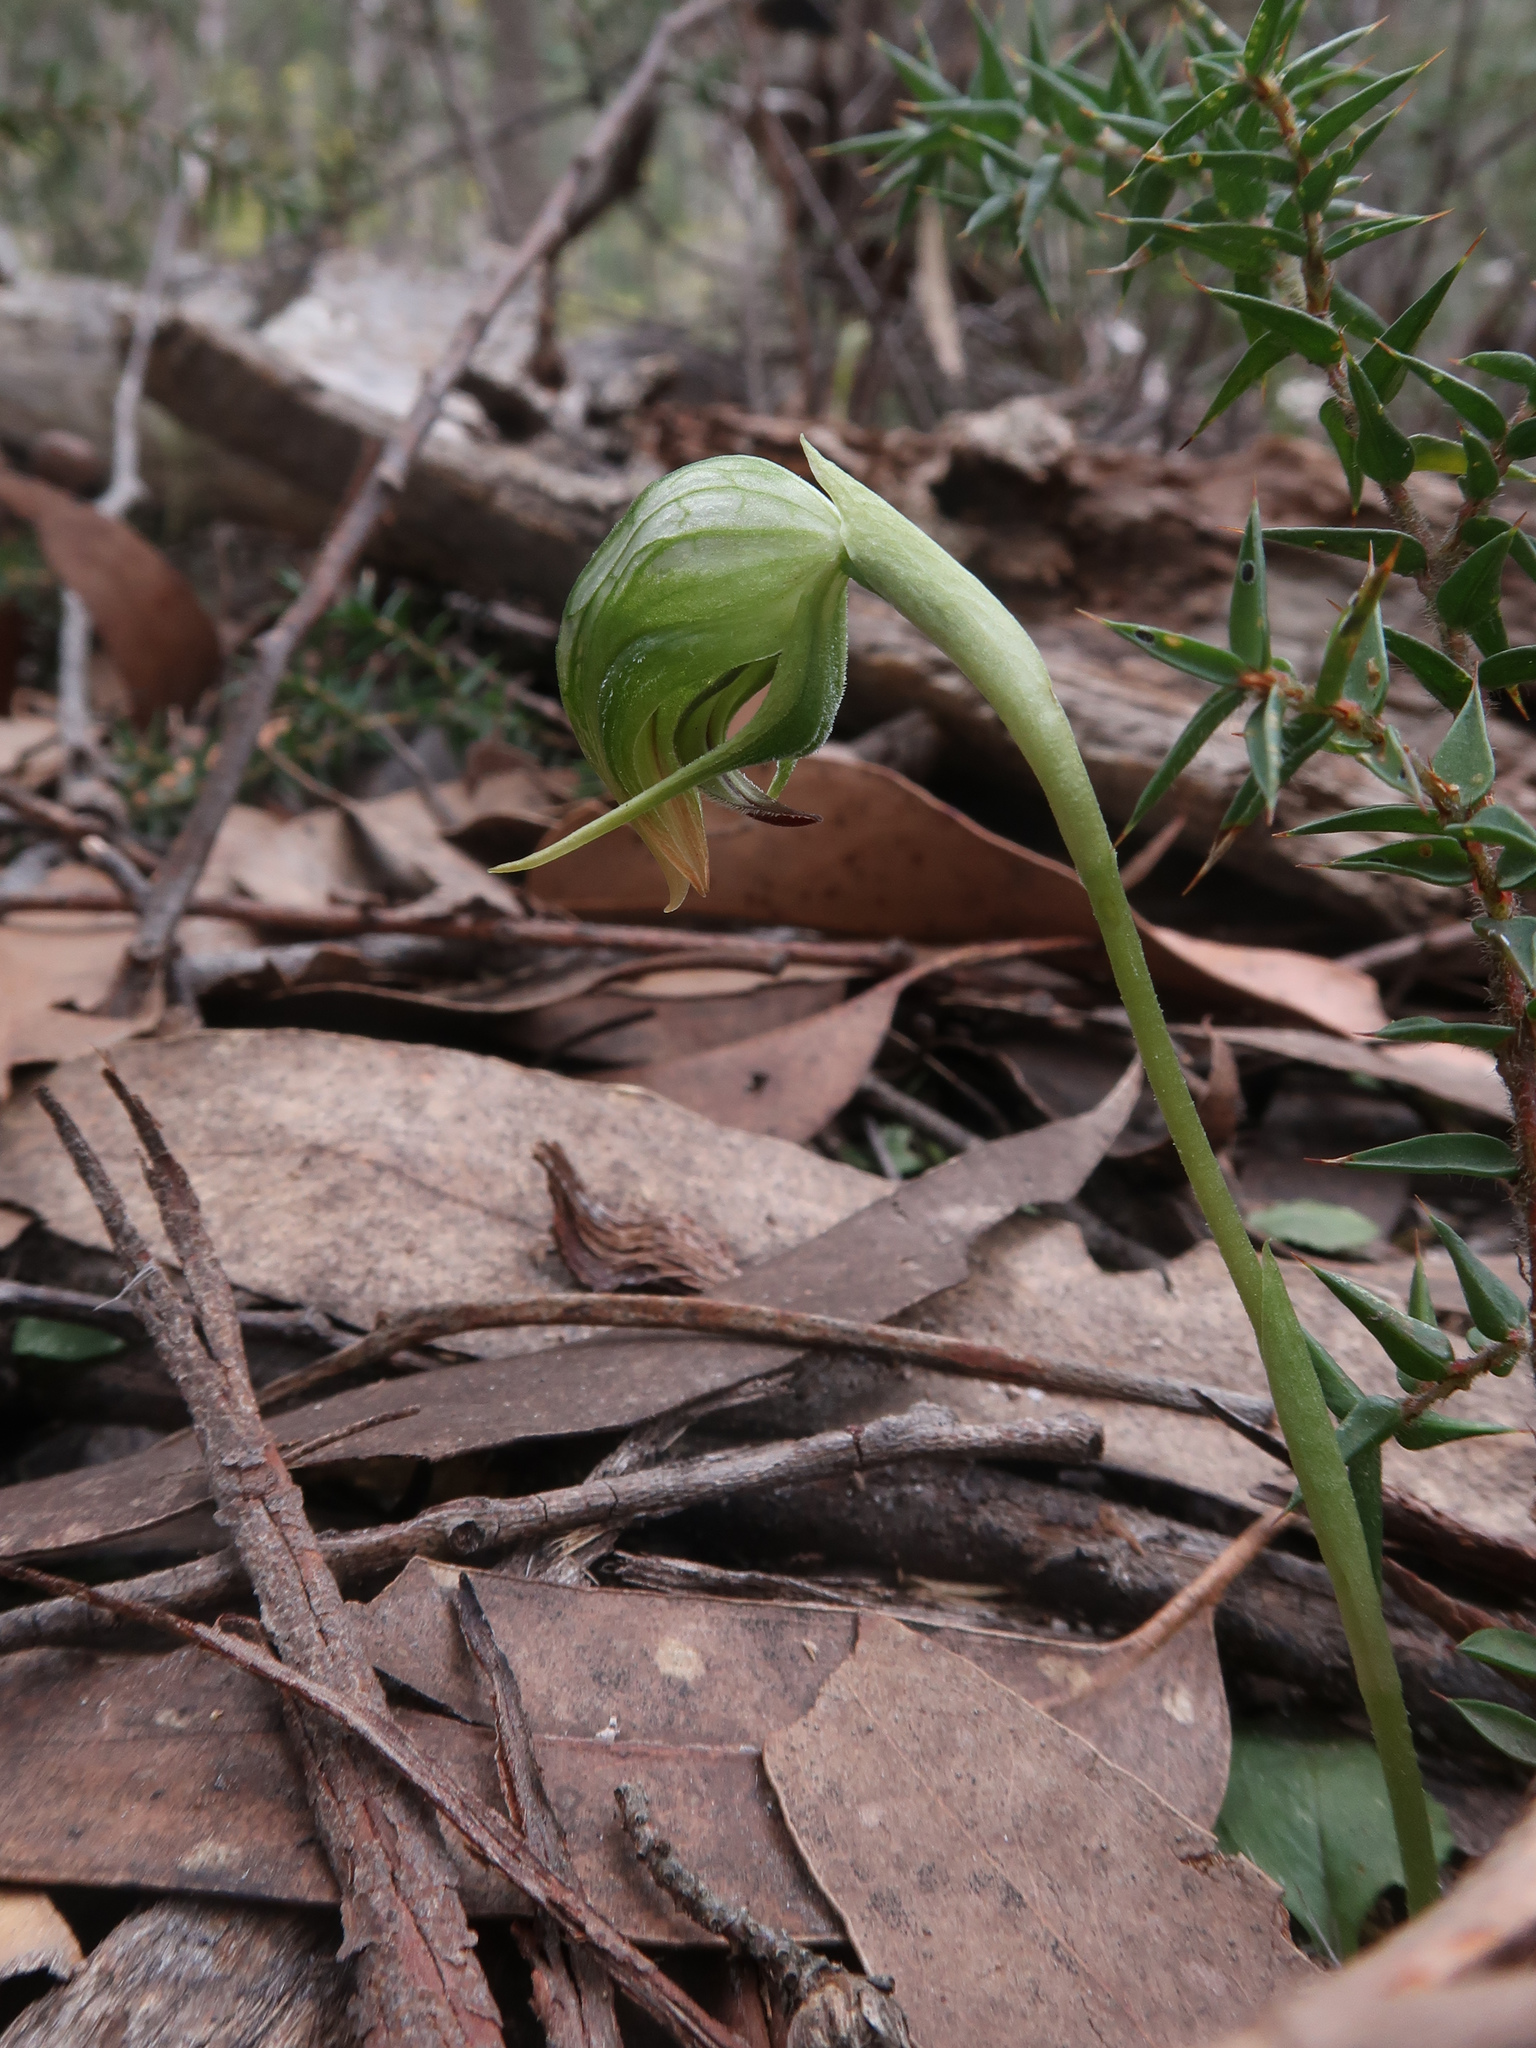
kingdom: Plantae
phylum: Tracheophyta
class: Liliopsida
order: Asparagales
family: Orchidaceae
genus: Pterostylis
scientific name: Pterostylis nutans
